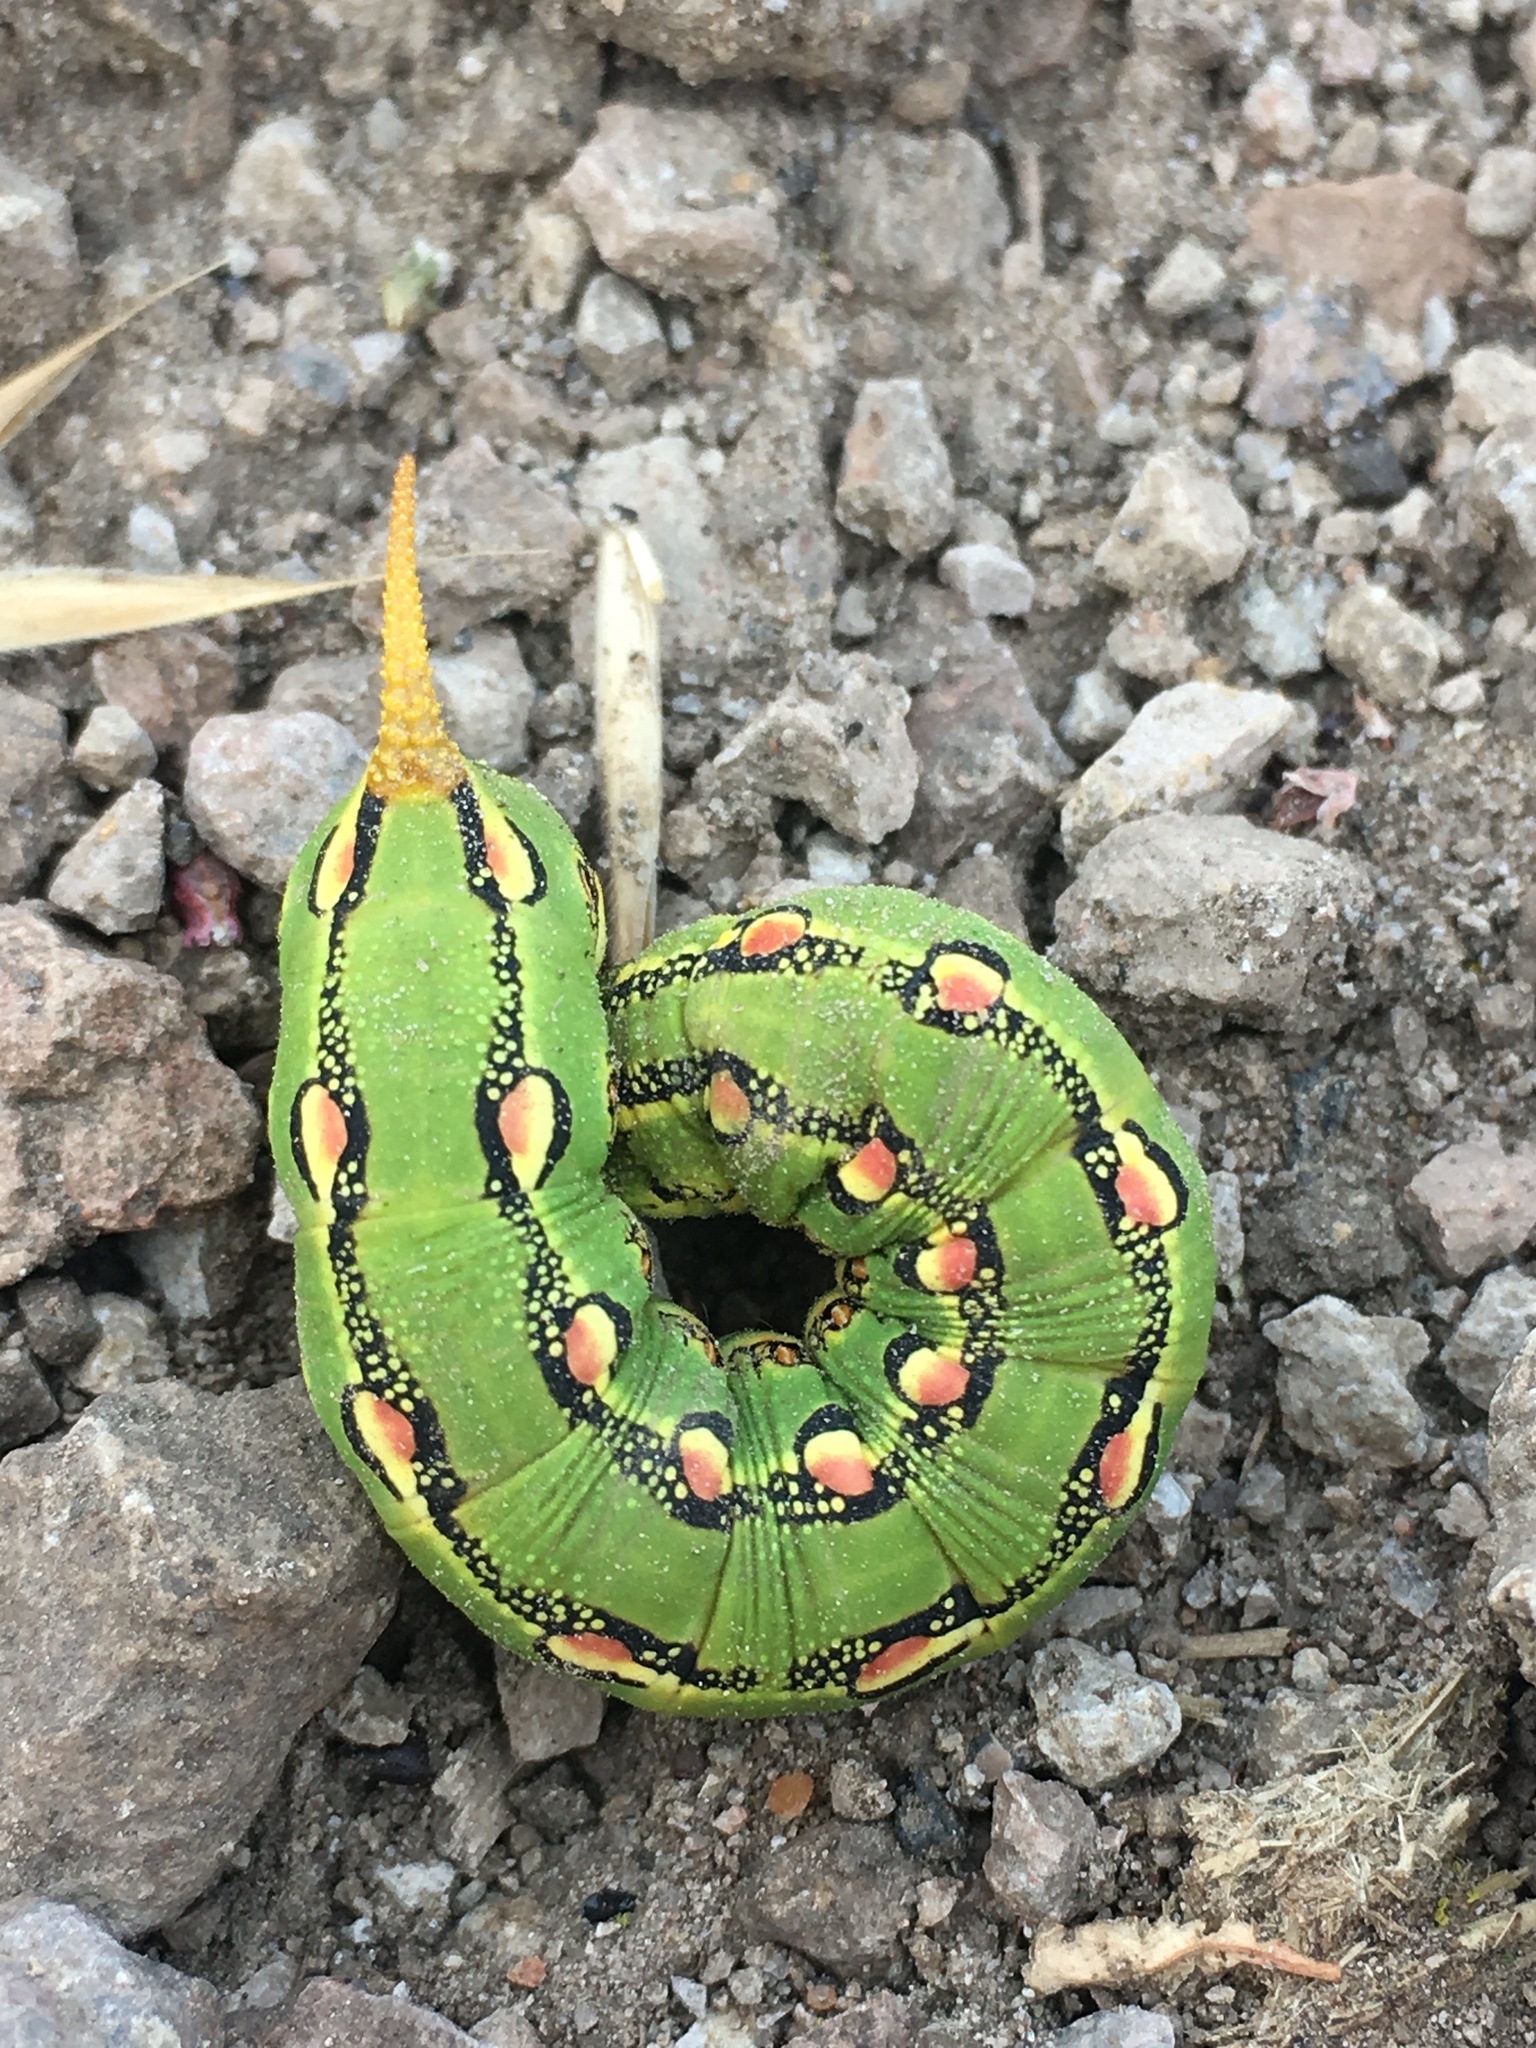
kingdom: Animalia
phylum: Arthropoda
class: Insecta
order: Lepidoptera
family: Sphingidae
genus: Hyles
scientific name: Hyles lineata
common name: White-lined sphinx
